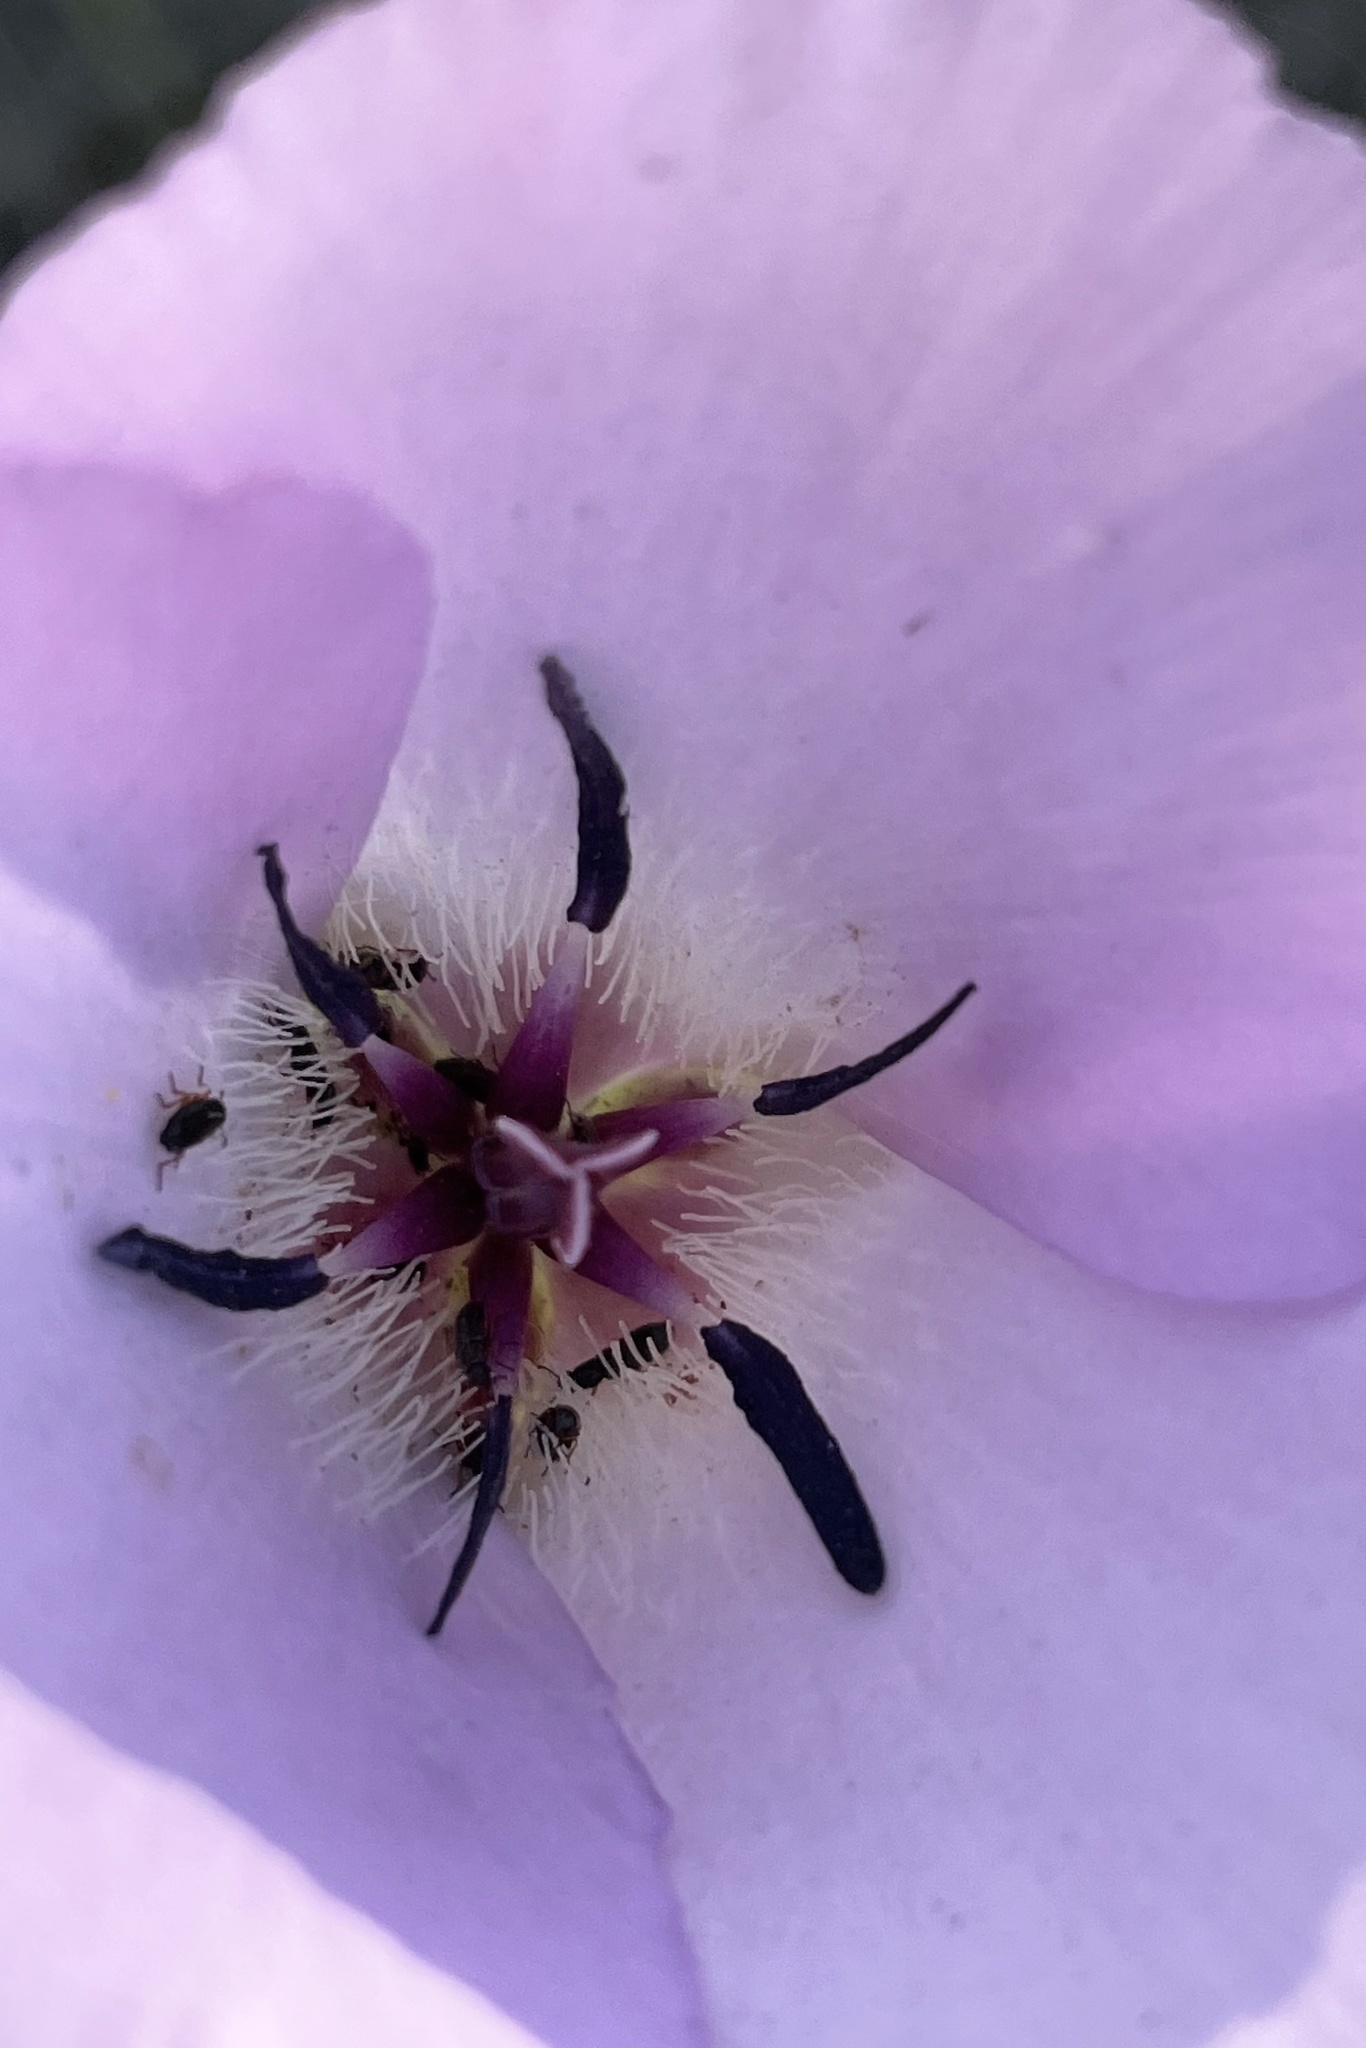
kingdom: Plantae
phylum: Tracheophyta
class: Liliopsida
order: Liliales
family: Liliaceae
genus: Calochortus
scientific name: Calochortus splendens
